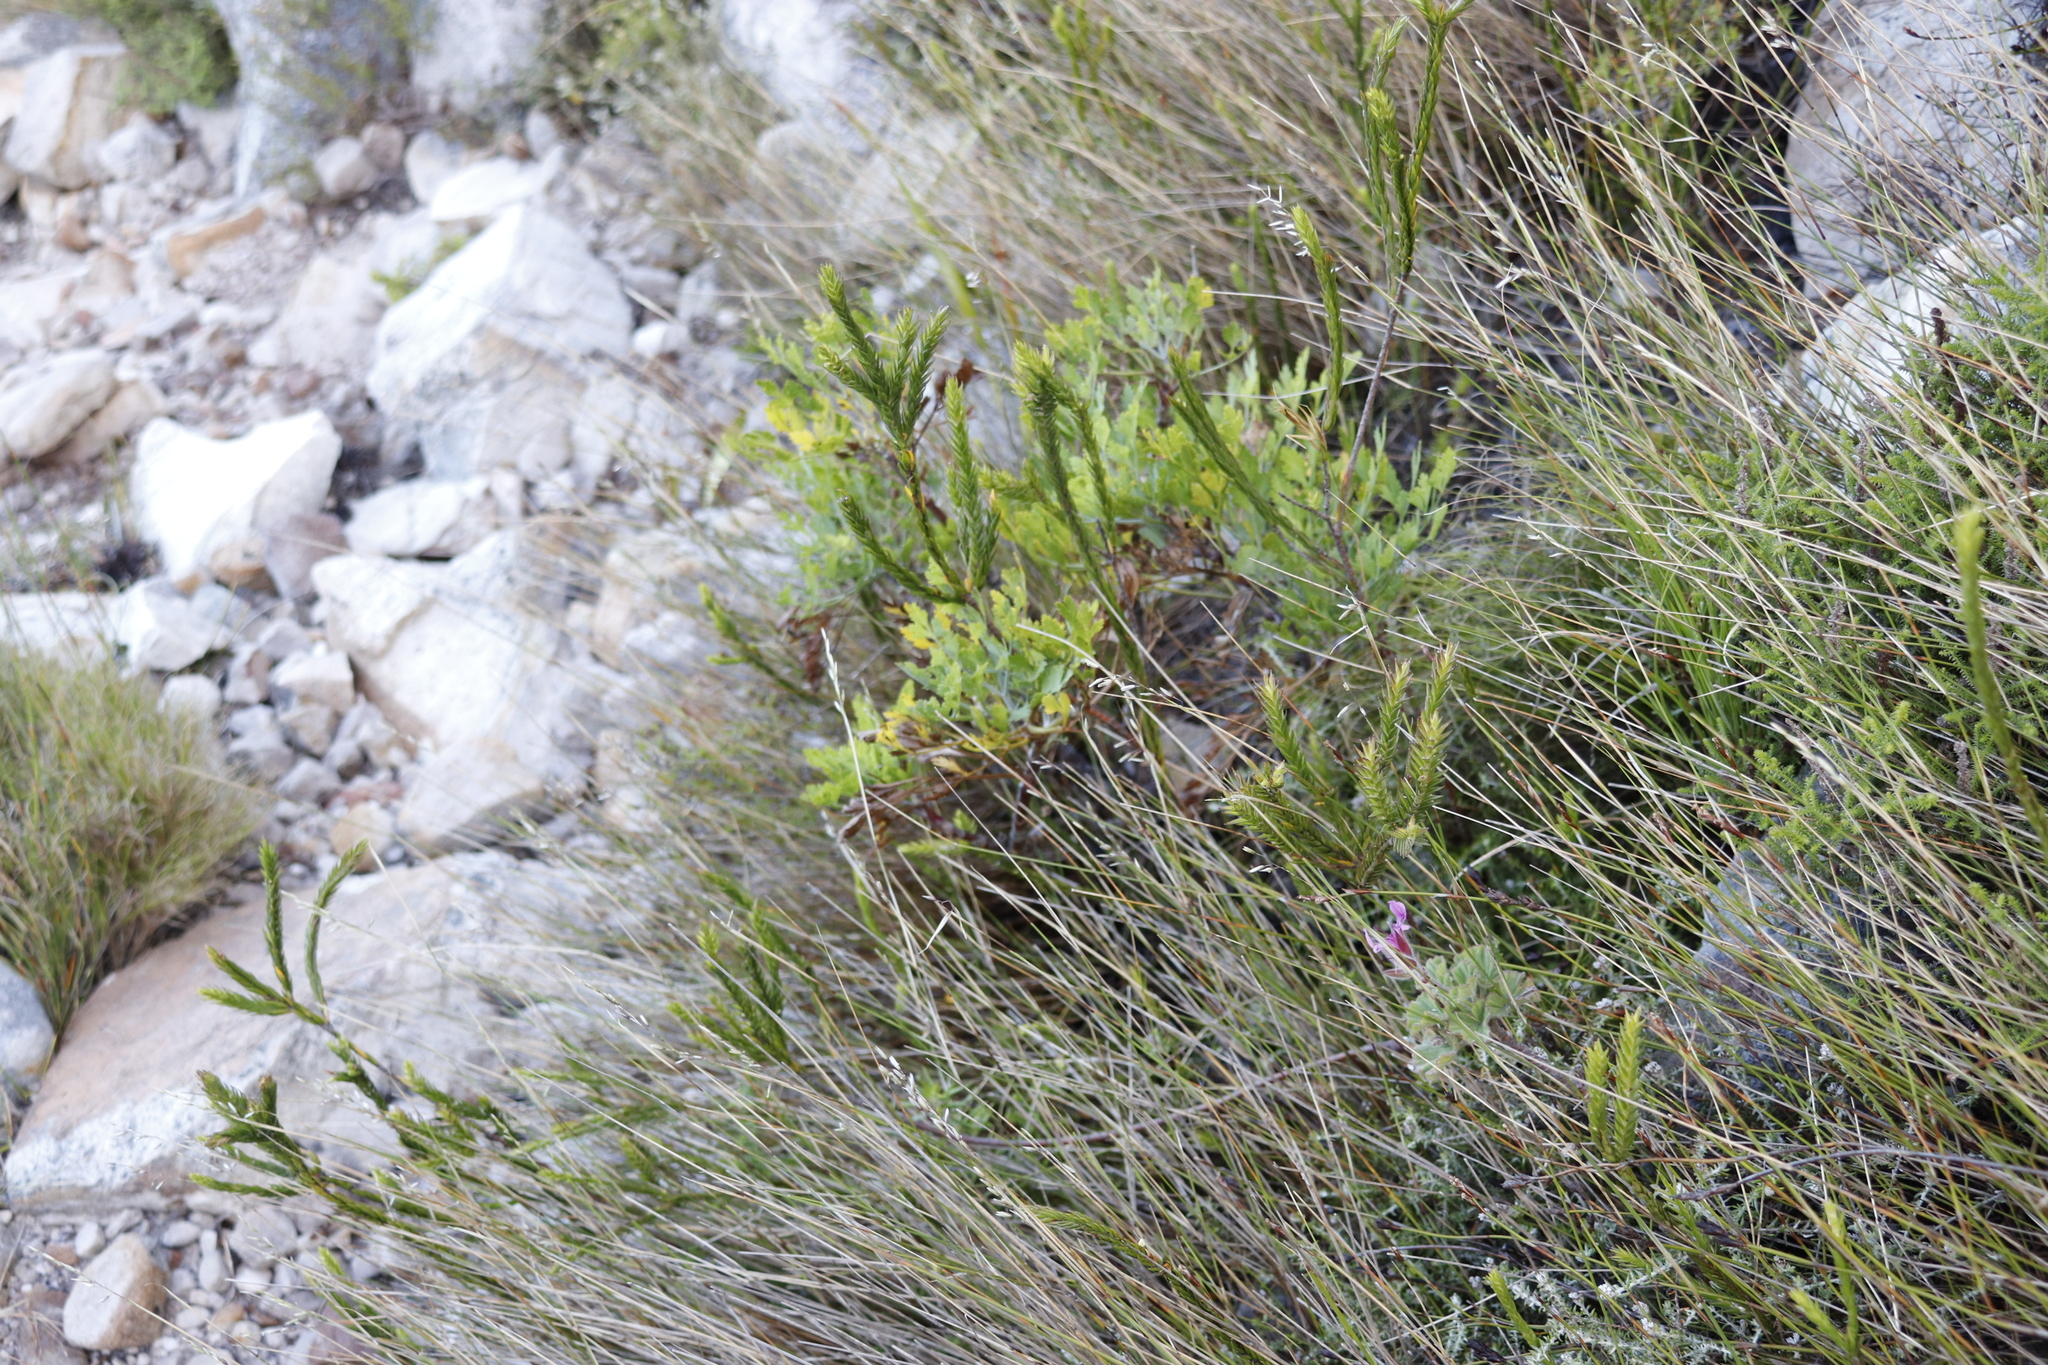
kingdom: Plantae
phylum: Tracheophyta
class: Magnoliopsida
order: Apiales
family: Apiaceae
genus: Notobubon
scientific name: Notobubon galbanum
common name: Blisterbush
